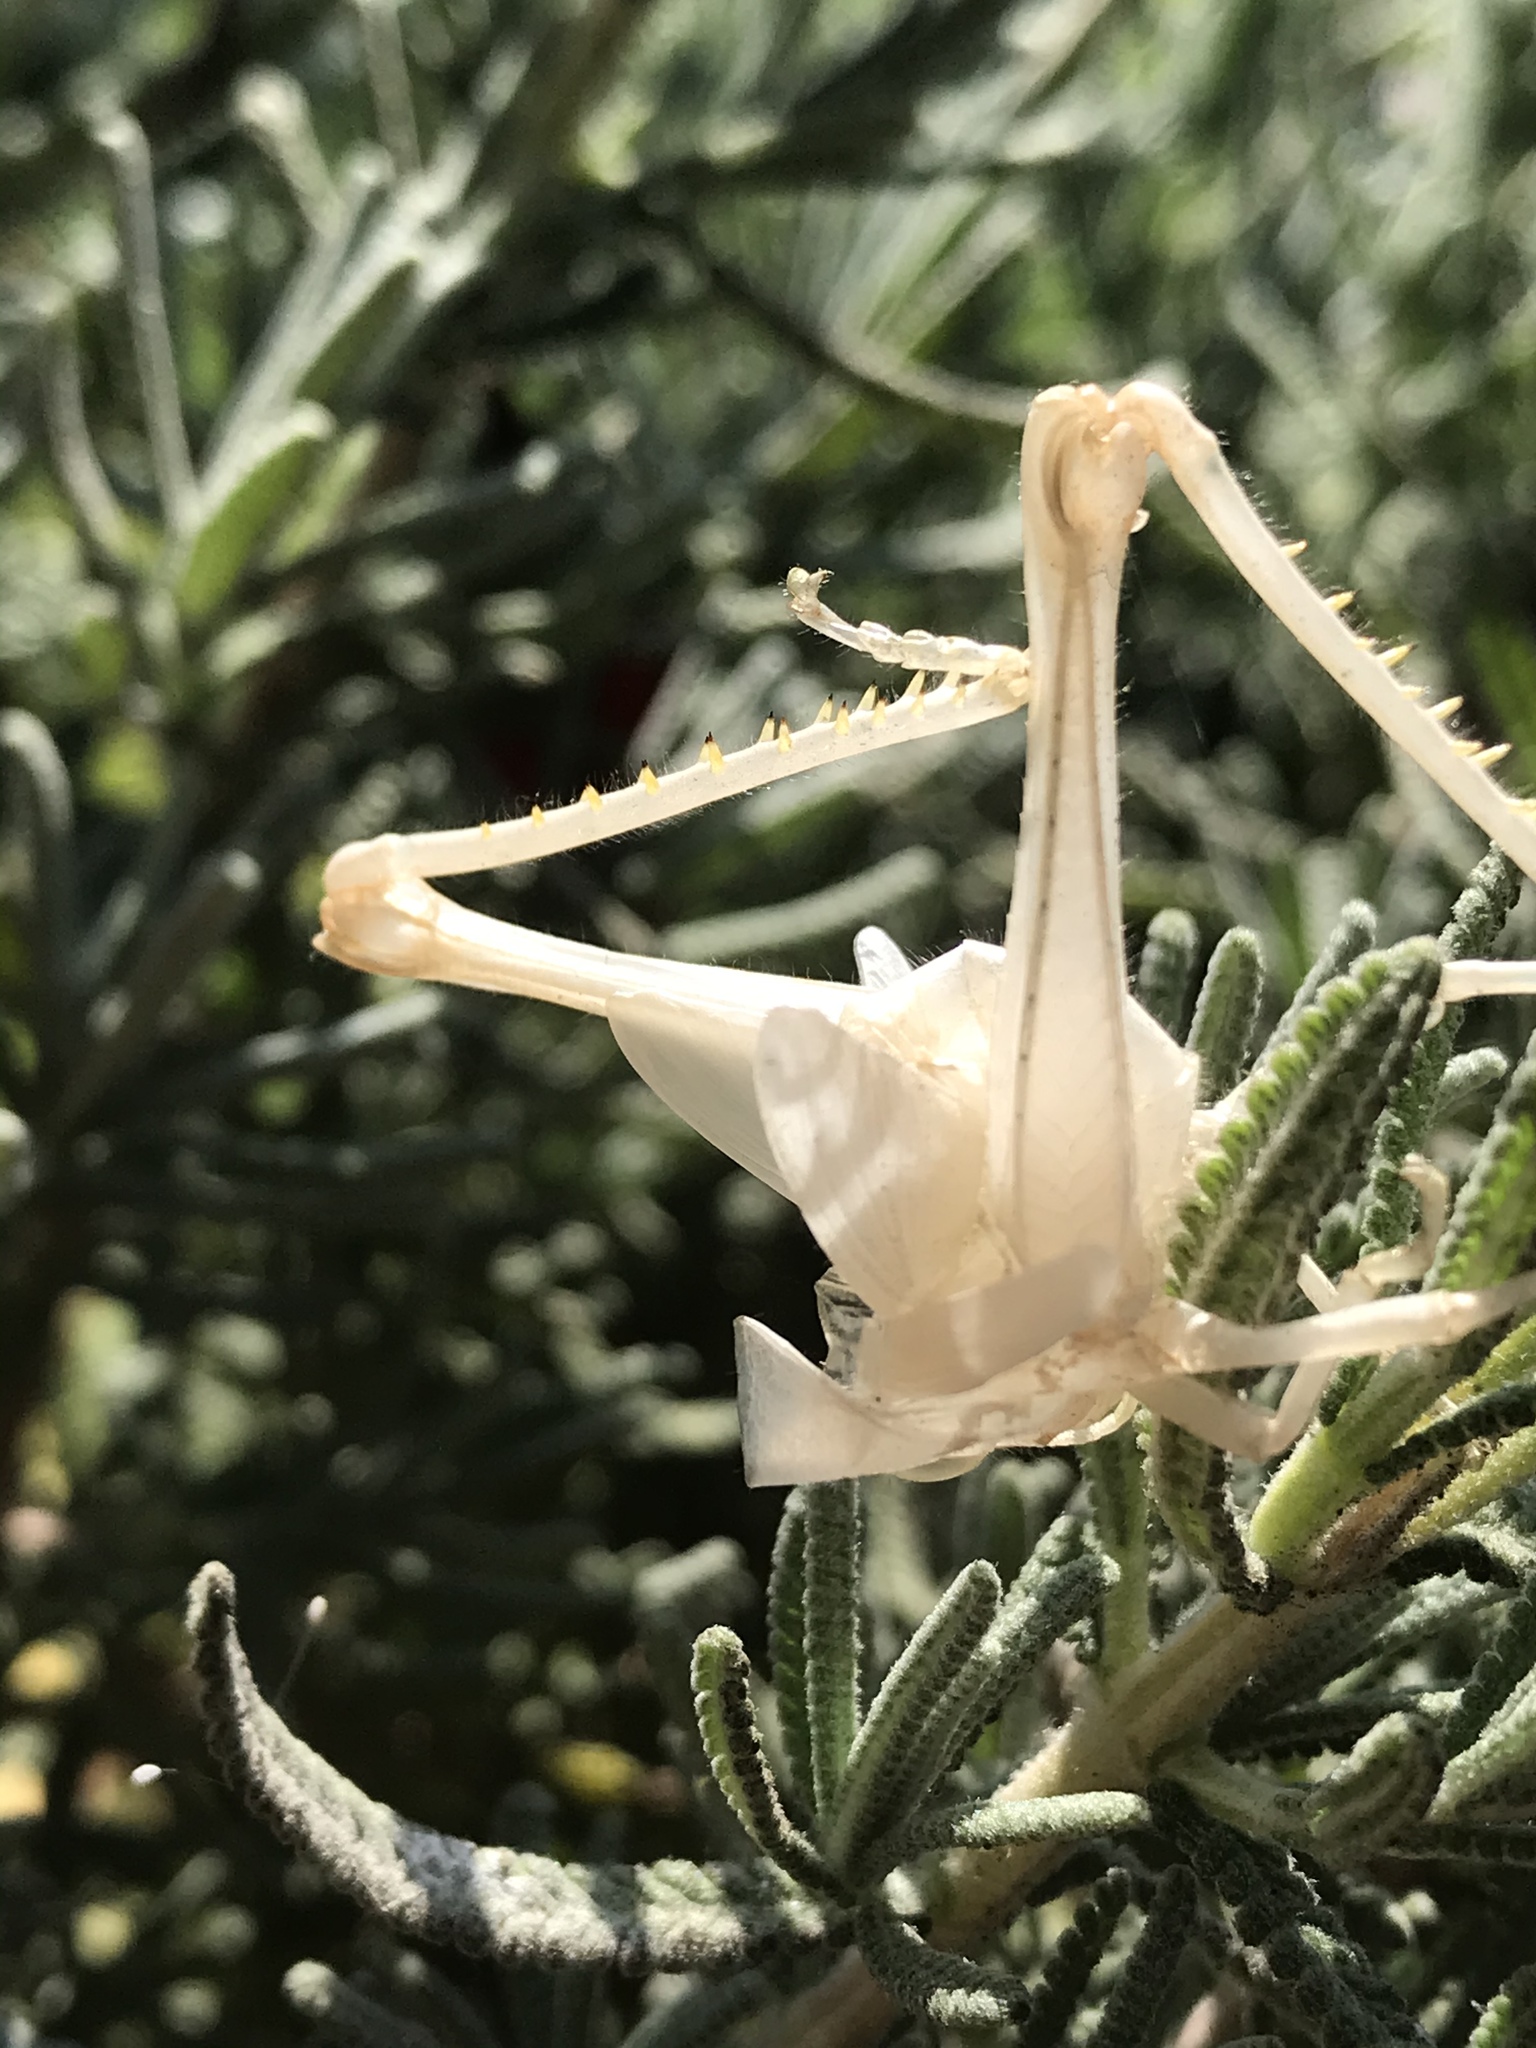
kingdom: Animalia
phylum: Arthropoda
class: Insecta
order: Orthoptera
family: Acrididae
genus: Schistocerca
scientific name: Schistocerca nitens
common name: Vagrant grasshopper
